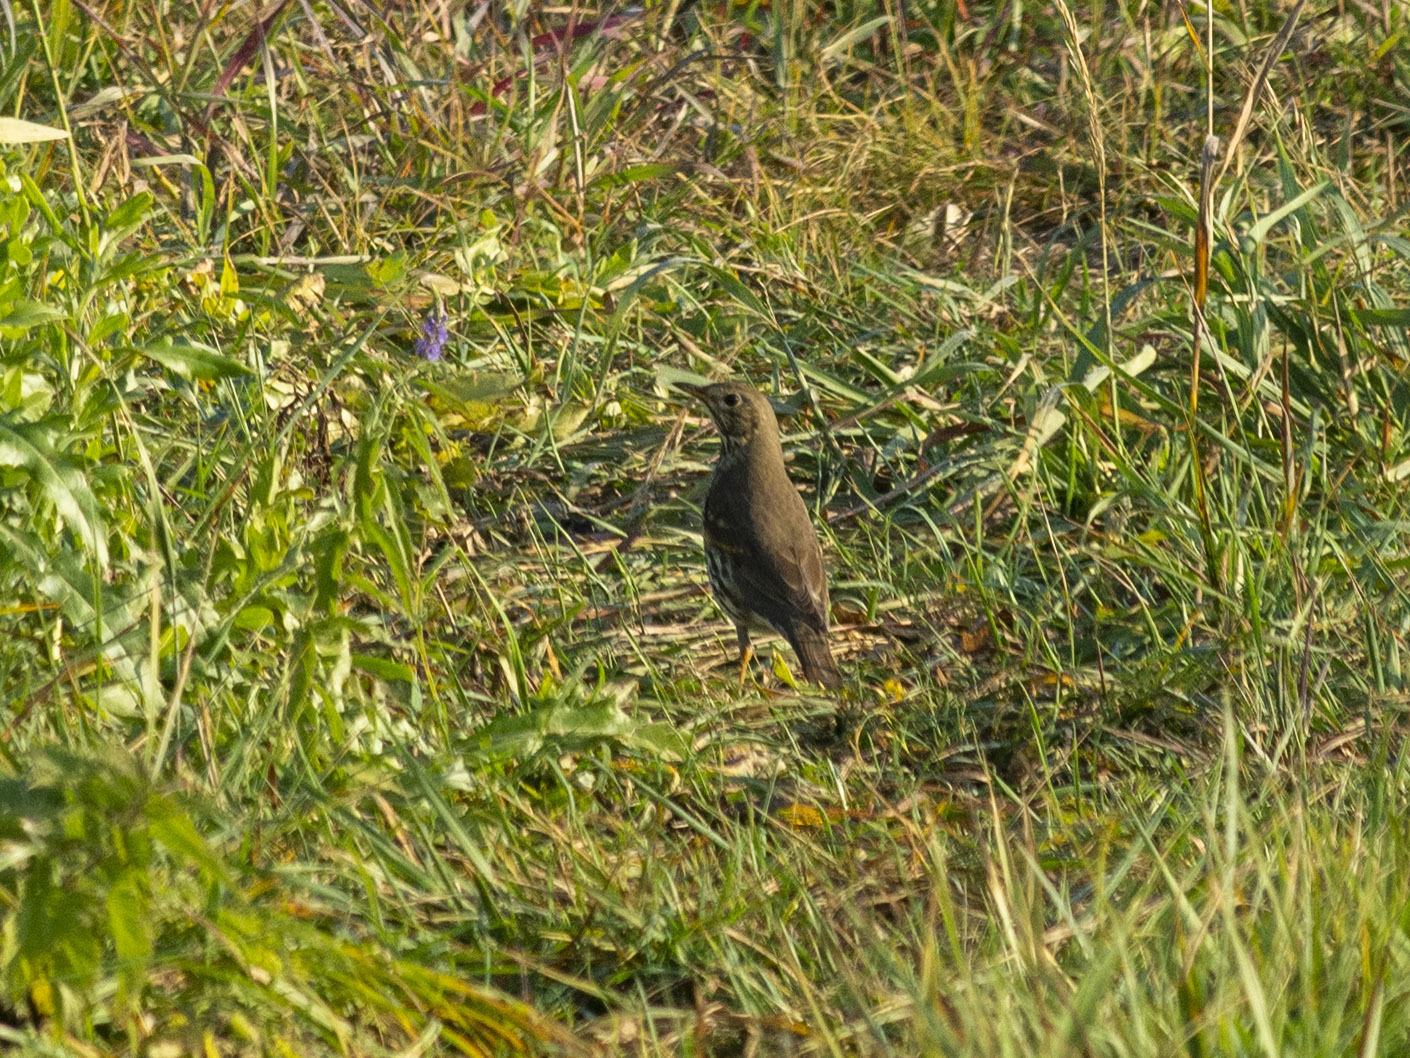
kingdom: Animalia
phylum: Chordata
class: Aves
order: Passeriformes
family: Turdidae
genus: Turdus
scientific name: Turdus philomelos
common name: Song thrush
